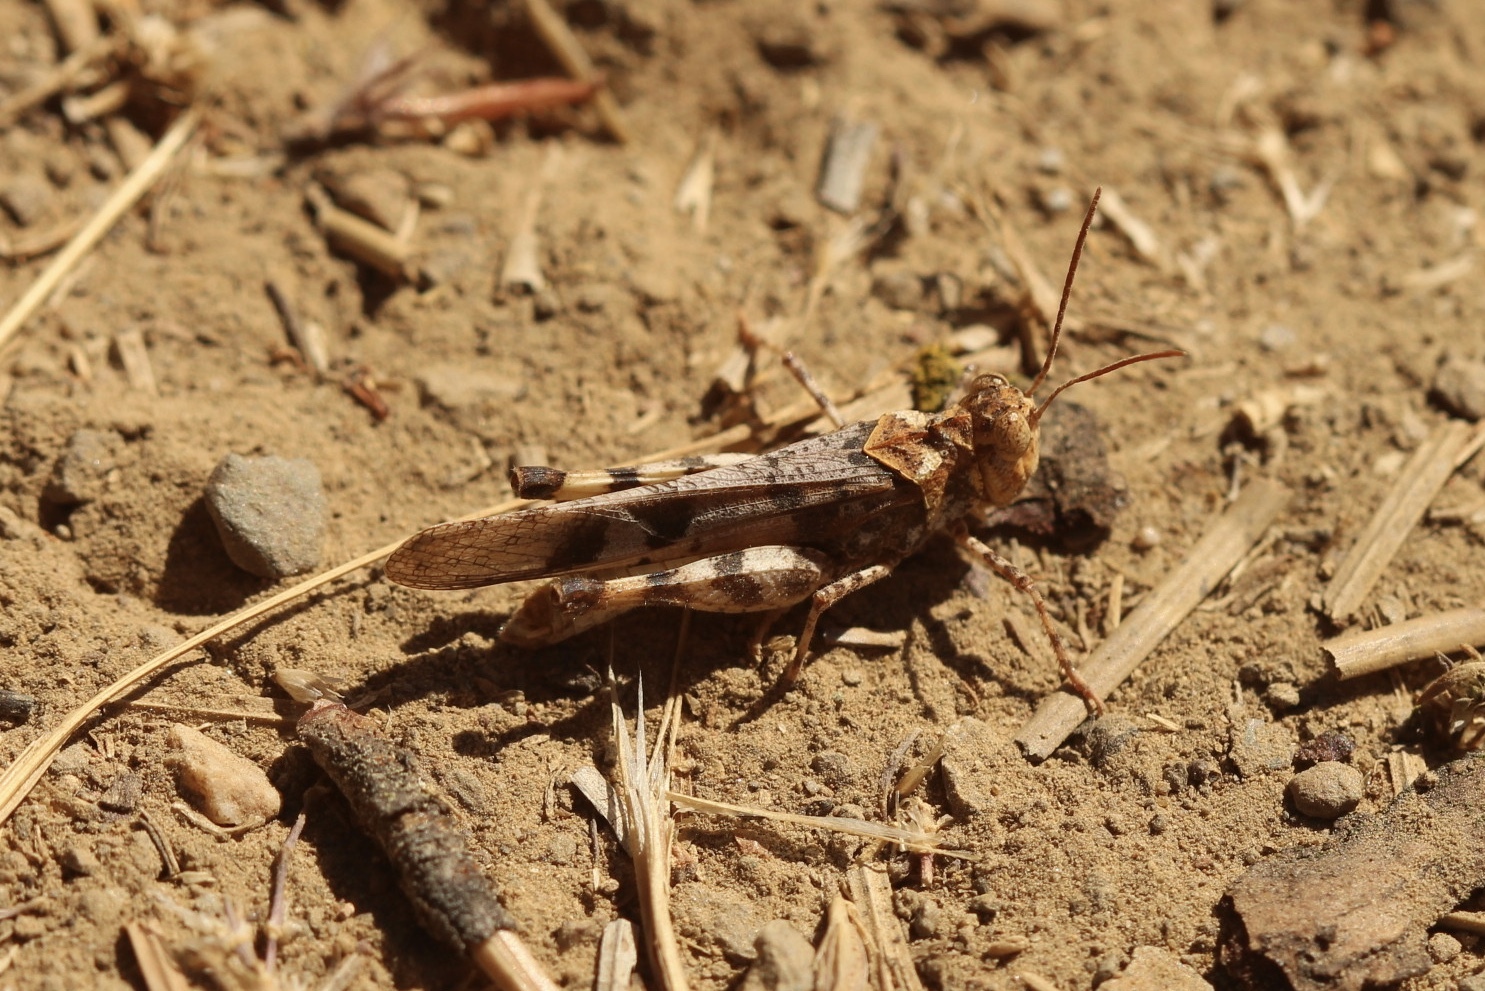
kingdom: Animalia
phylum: Arthropoda
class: Insecta
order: Orthoptera
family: Acrididae
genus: Dissosteira
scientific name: Dissosteira pictipennis
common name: California rose-winged grasshopper
